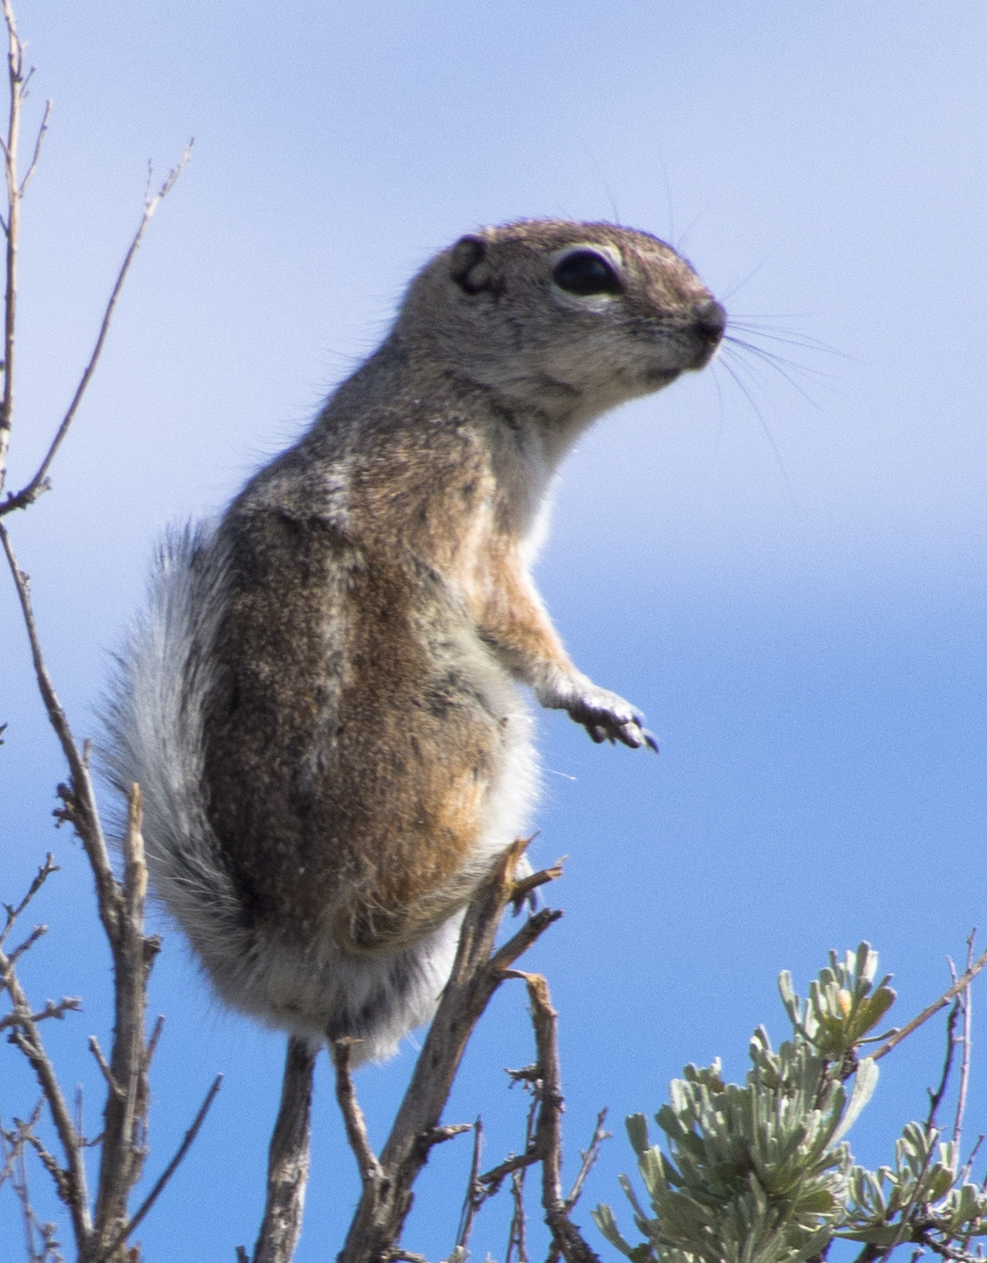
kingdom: Animalia
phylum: Chordata
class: Mammalia
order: Rodentia
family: Sciuridae
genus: Ammospermophilus
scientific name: Ammospermophilus leucurus
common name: White-tailed antelope squirrel
